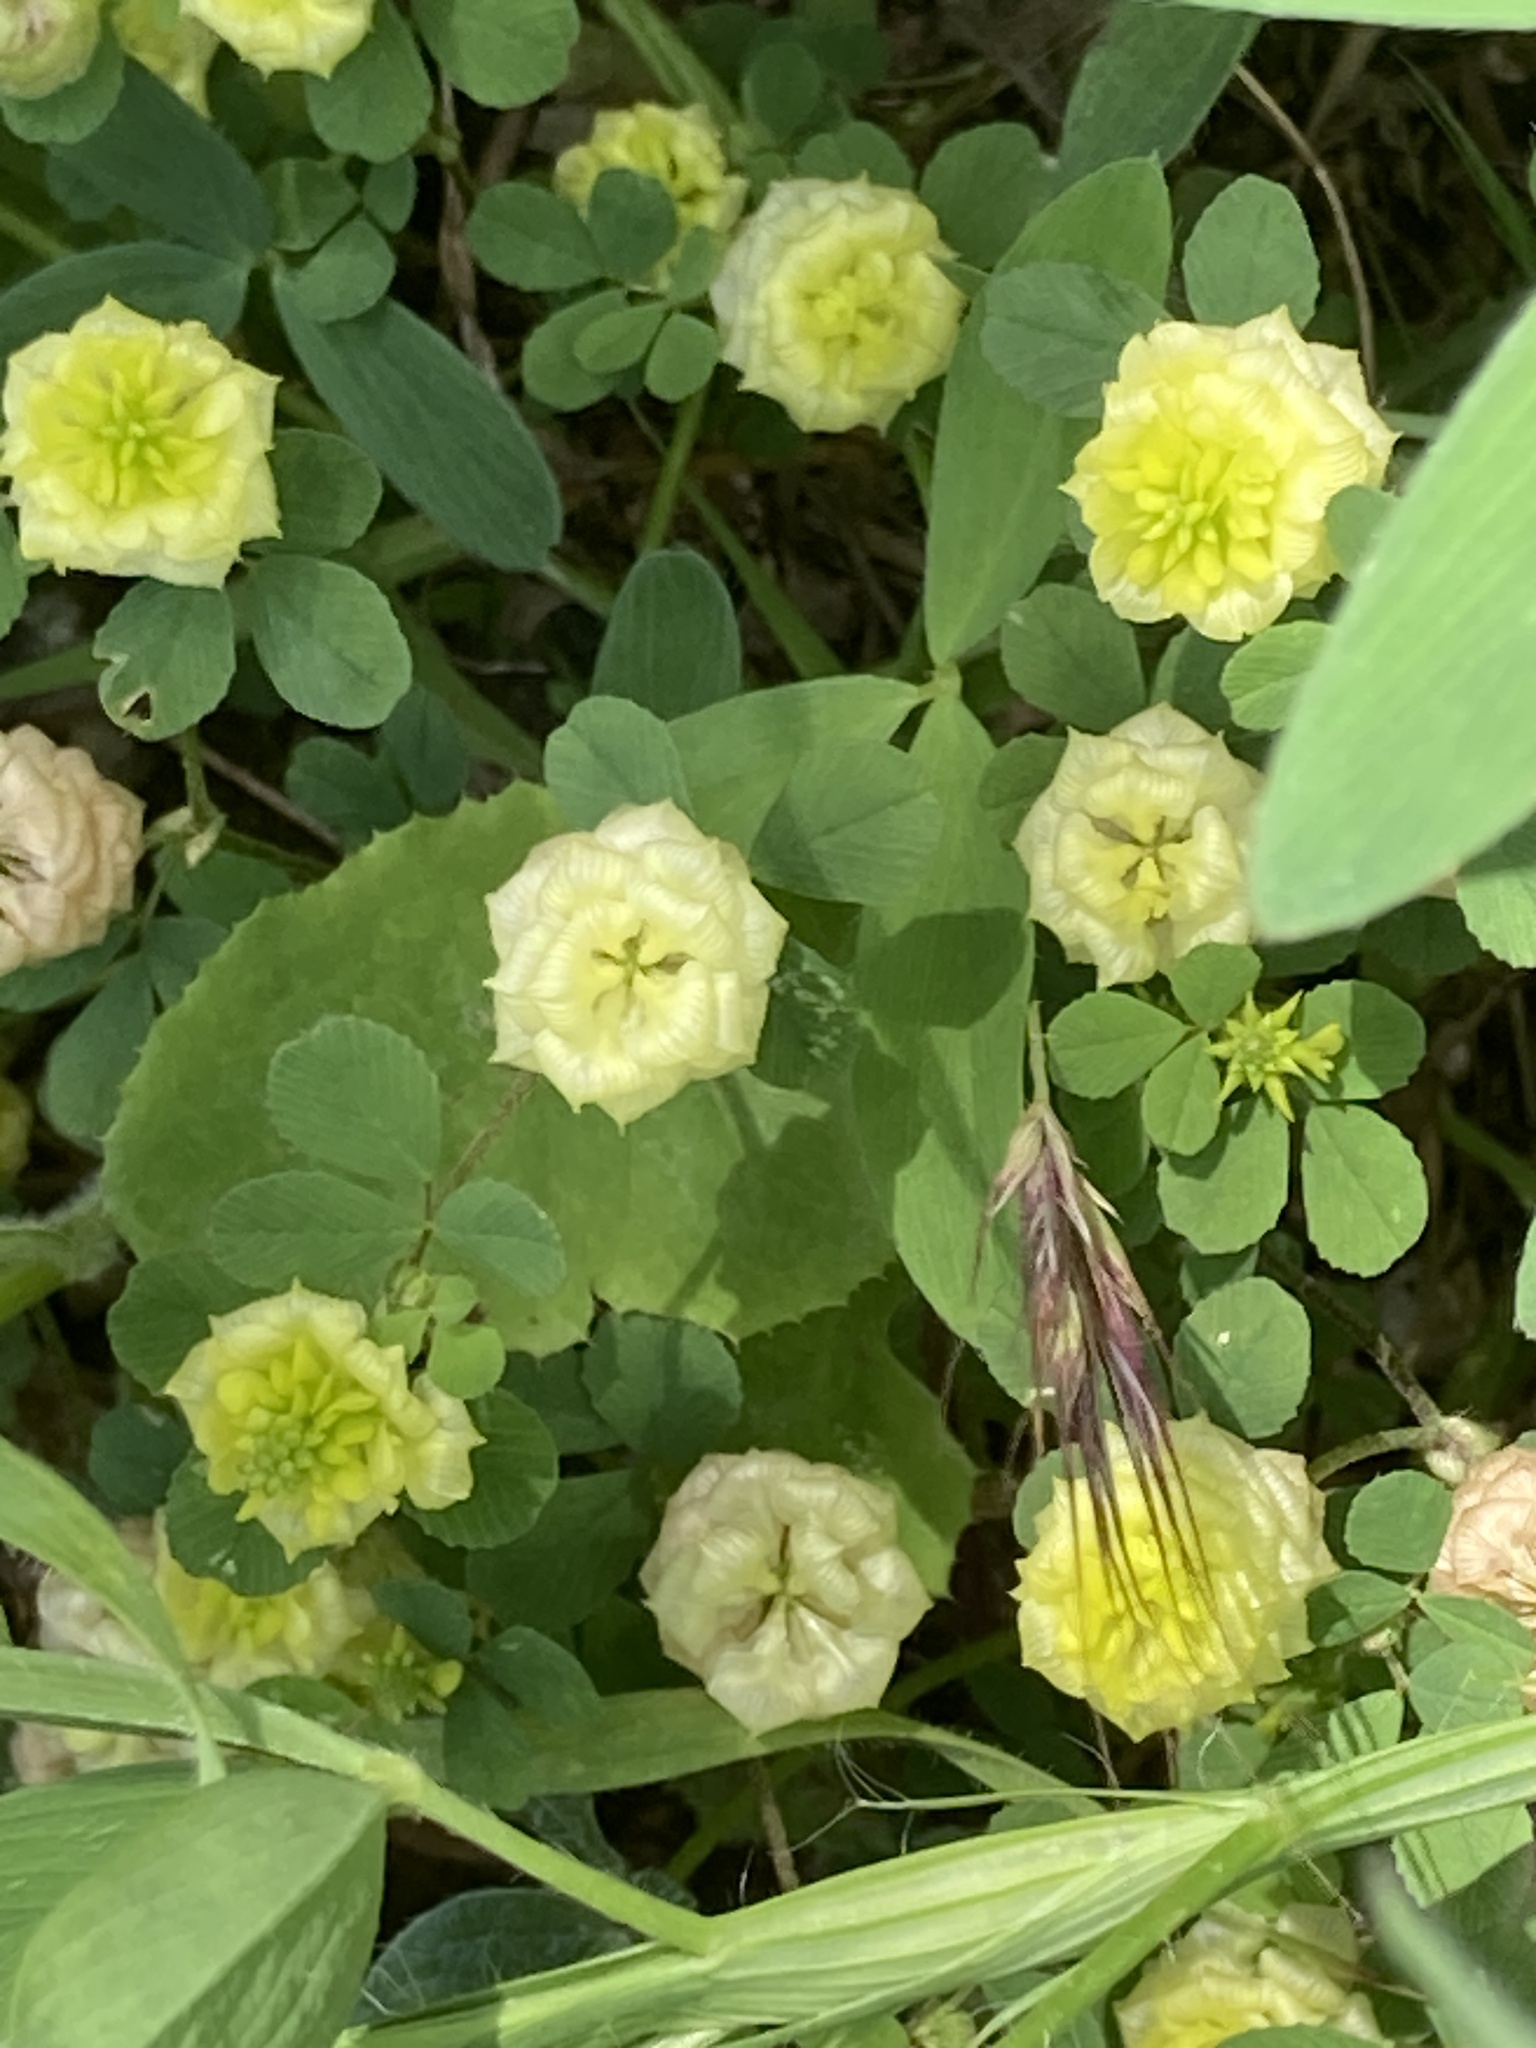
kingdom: Plantae
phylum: Tracheophyta
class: Magnoliopsida
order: Fabales
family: Fabaceae
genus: Trifolium
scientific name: Trifolium campestre
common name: Field clover
